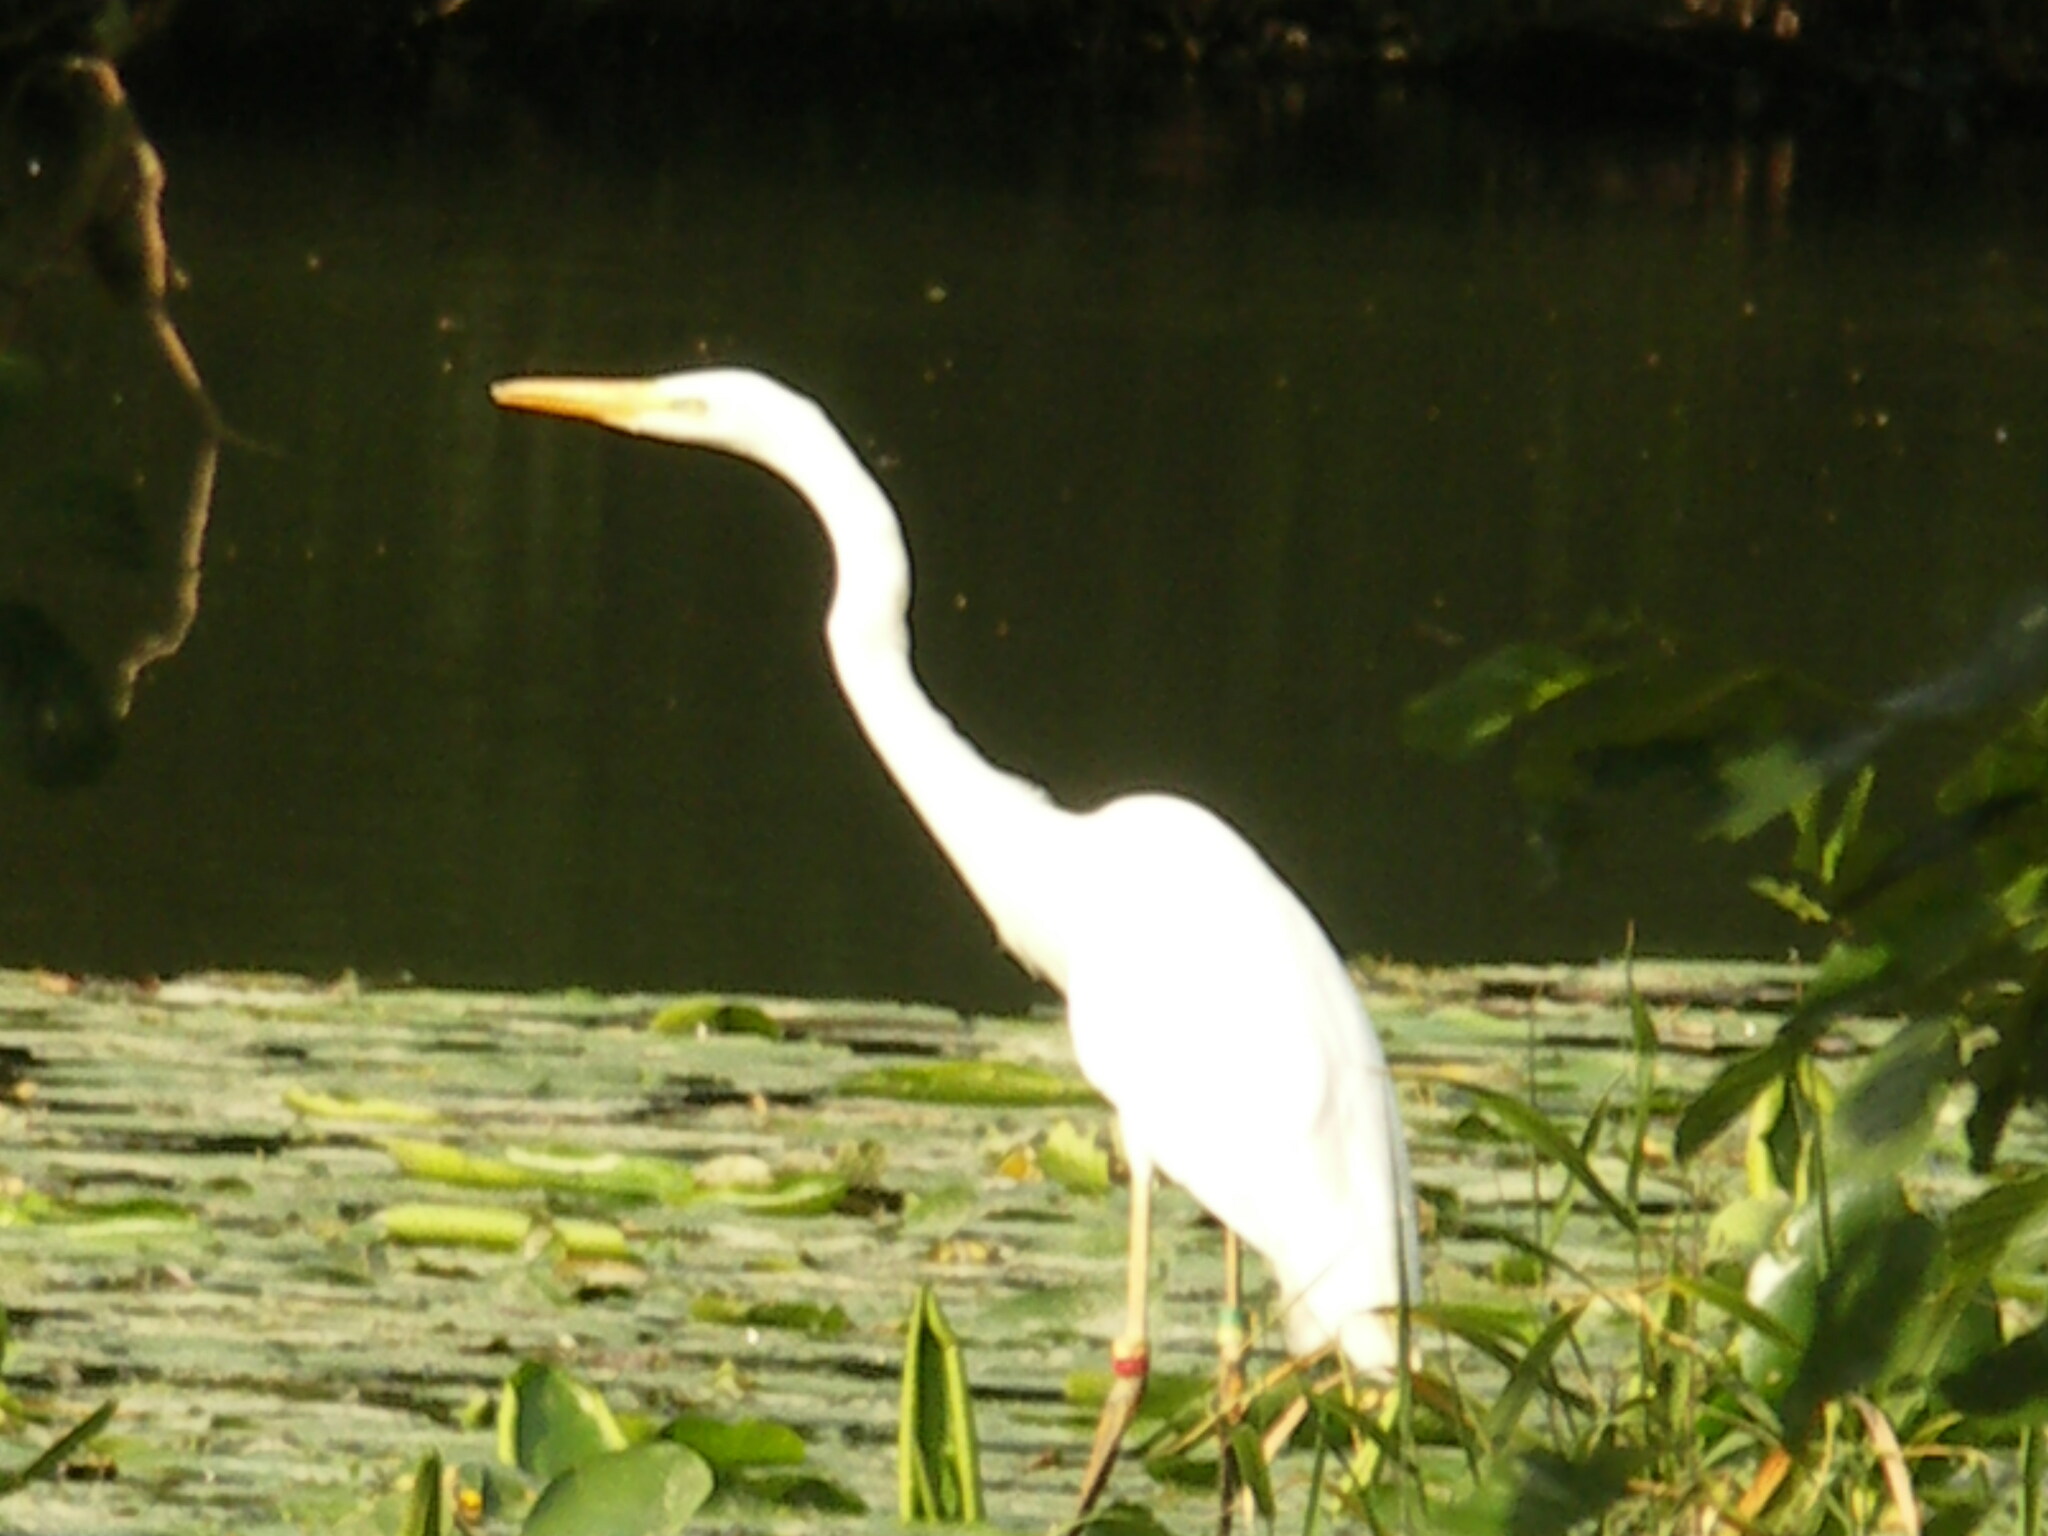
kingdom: Animalia
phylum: Chordata
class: Aves
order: Pelecaniformes
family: Ardeidae
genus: Ardea
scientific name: Ardea alba
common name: Great egret
